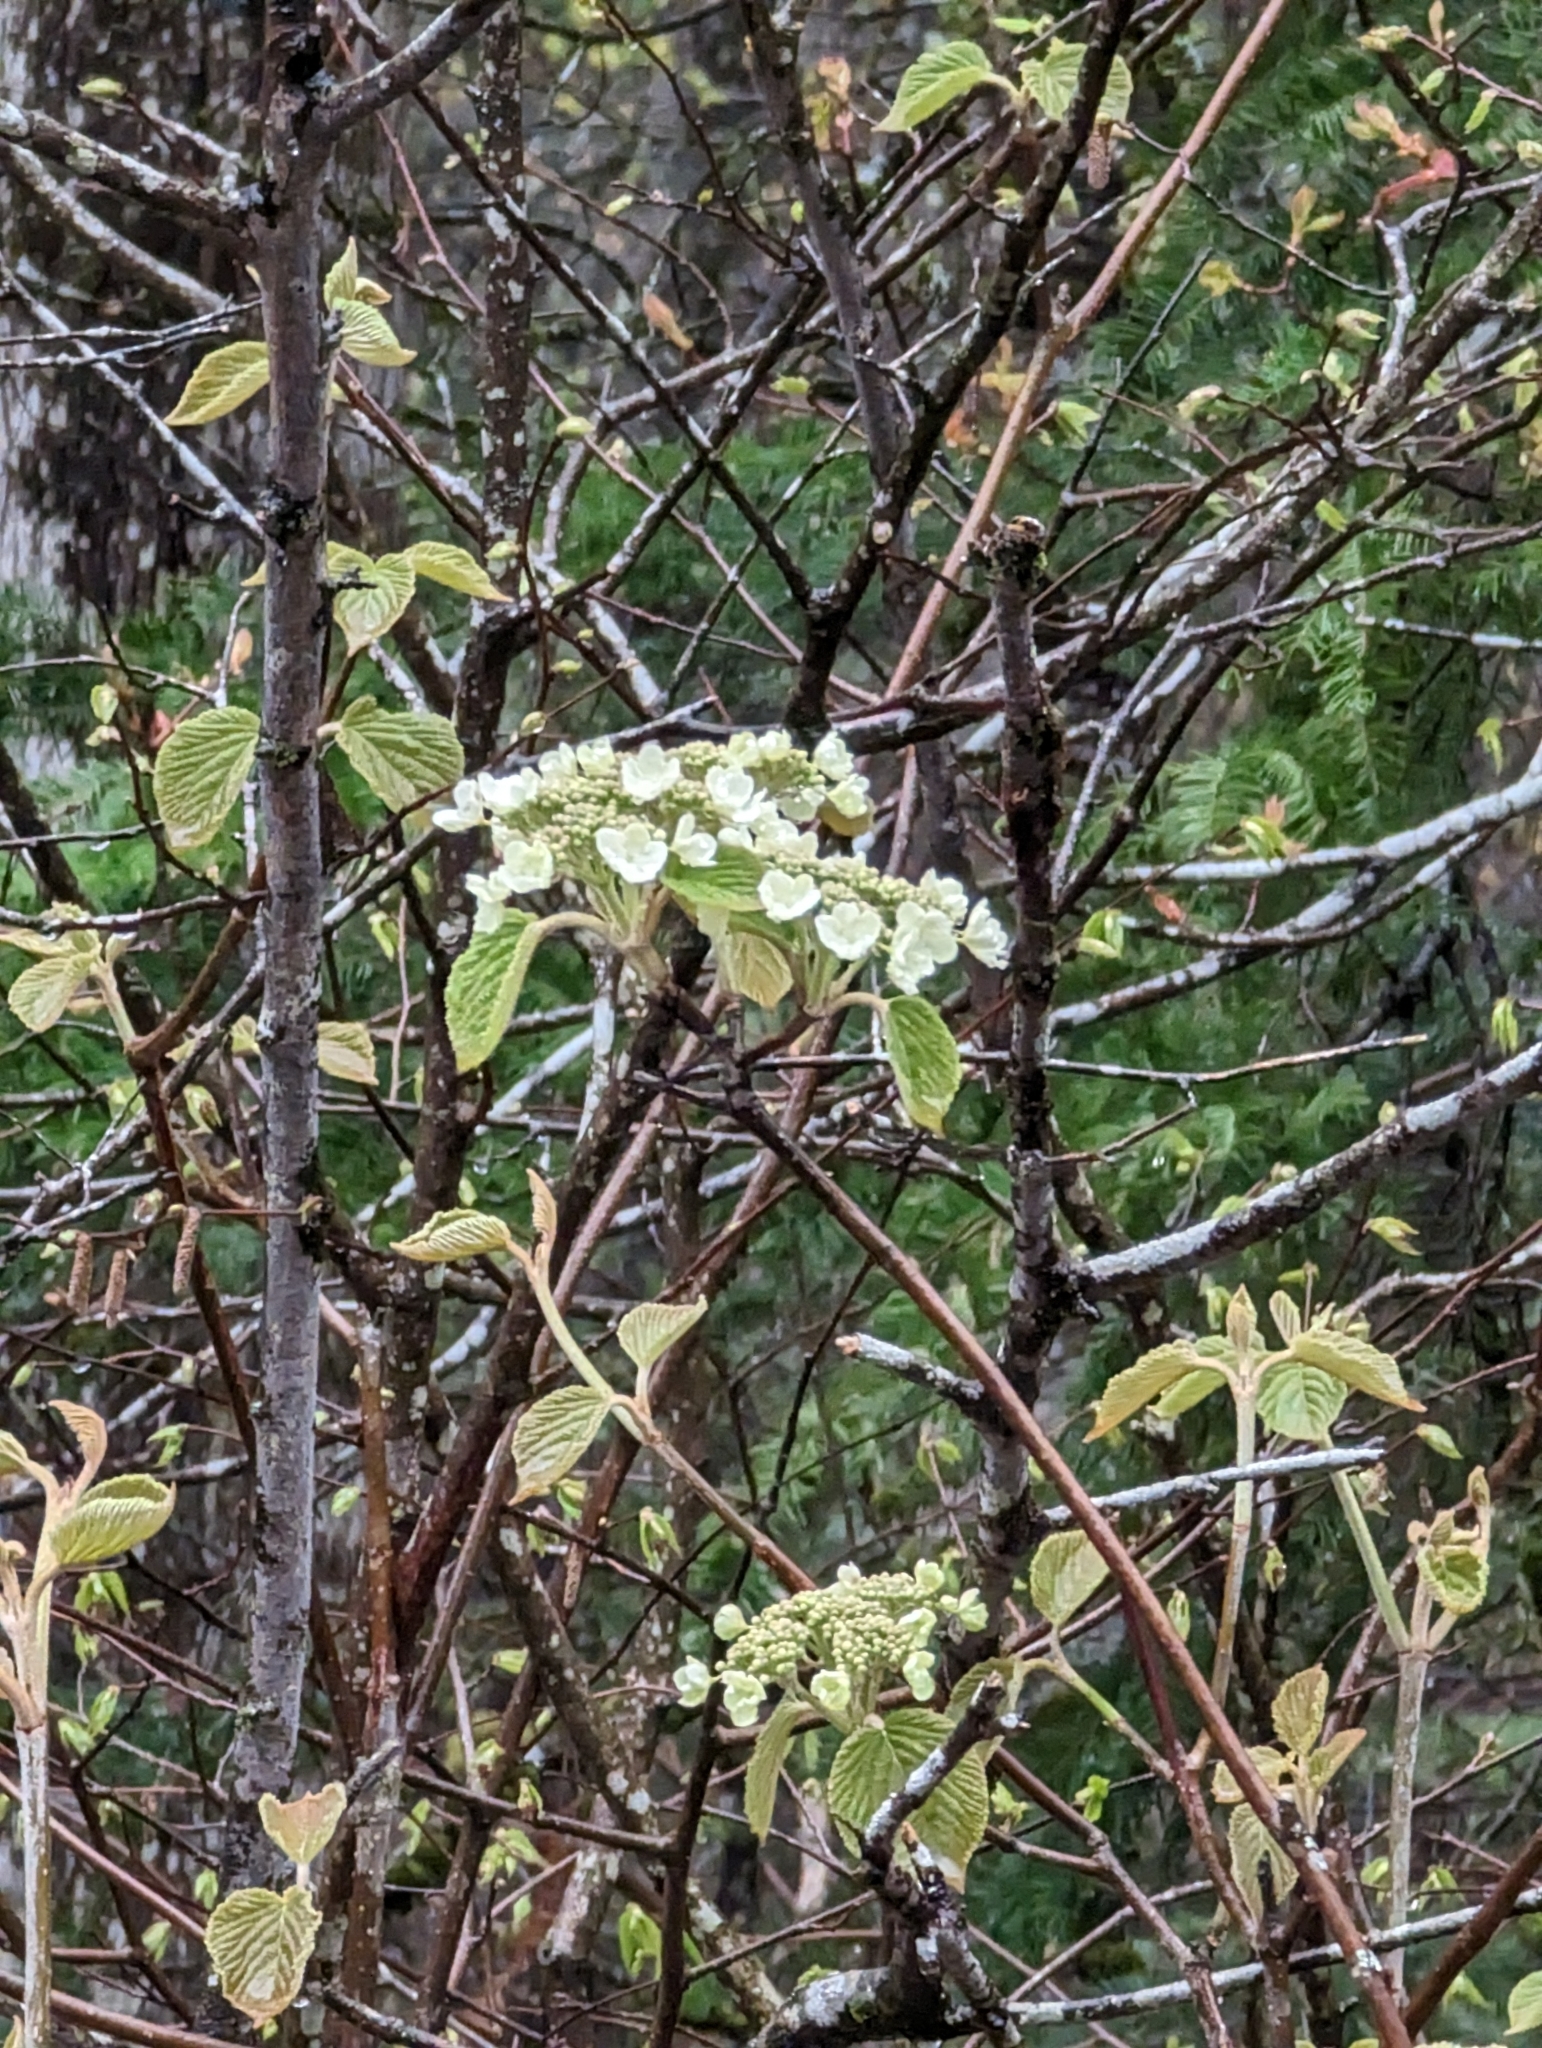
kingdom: Plantae
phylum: Tracheophyta
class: Magnoliopsida
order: Dipsacales
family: Viburnaceae
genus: Viburnum
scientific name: Viburnum lantanoides
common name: Hobblebush
